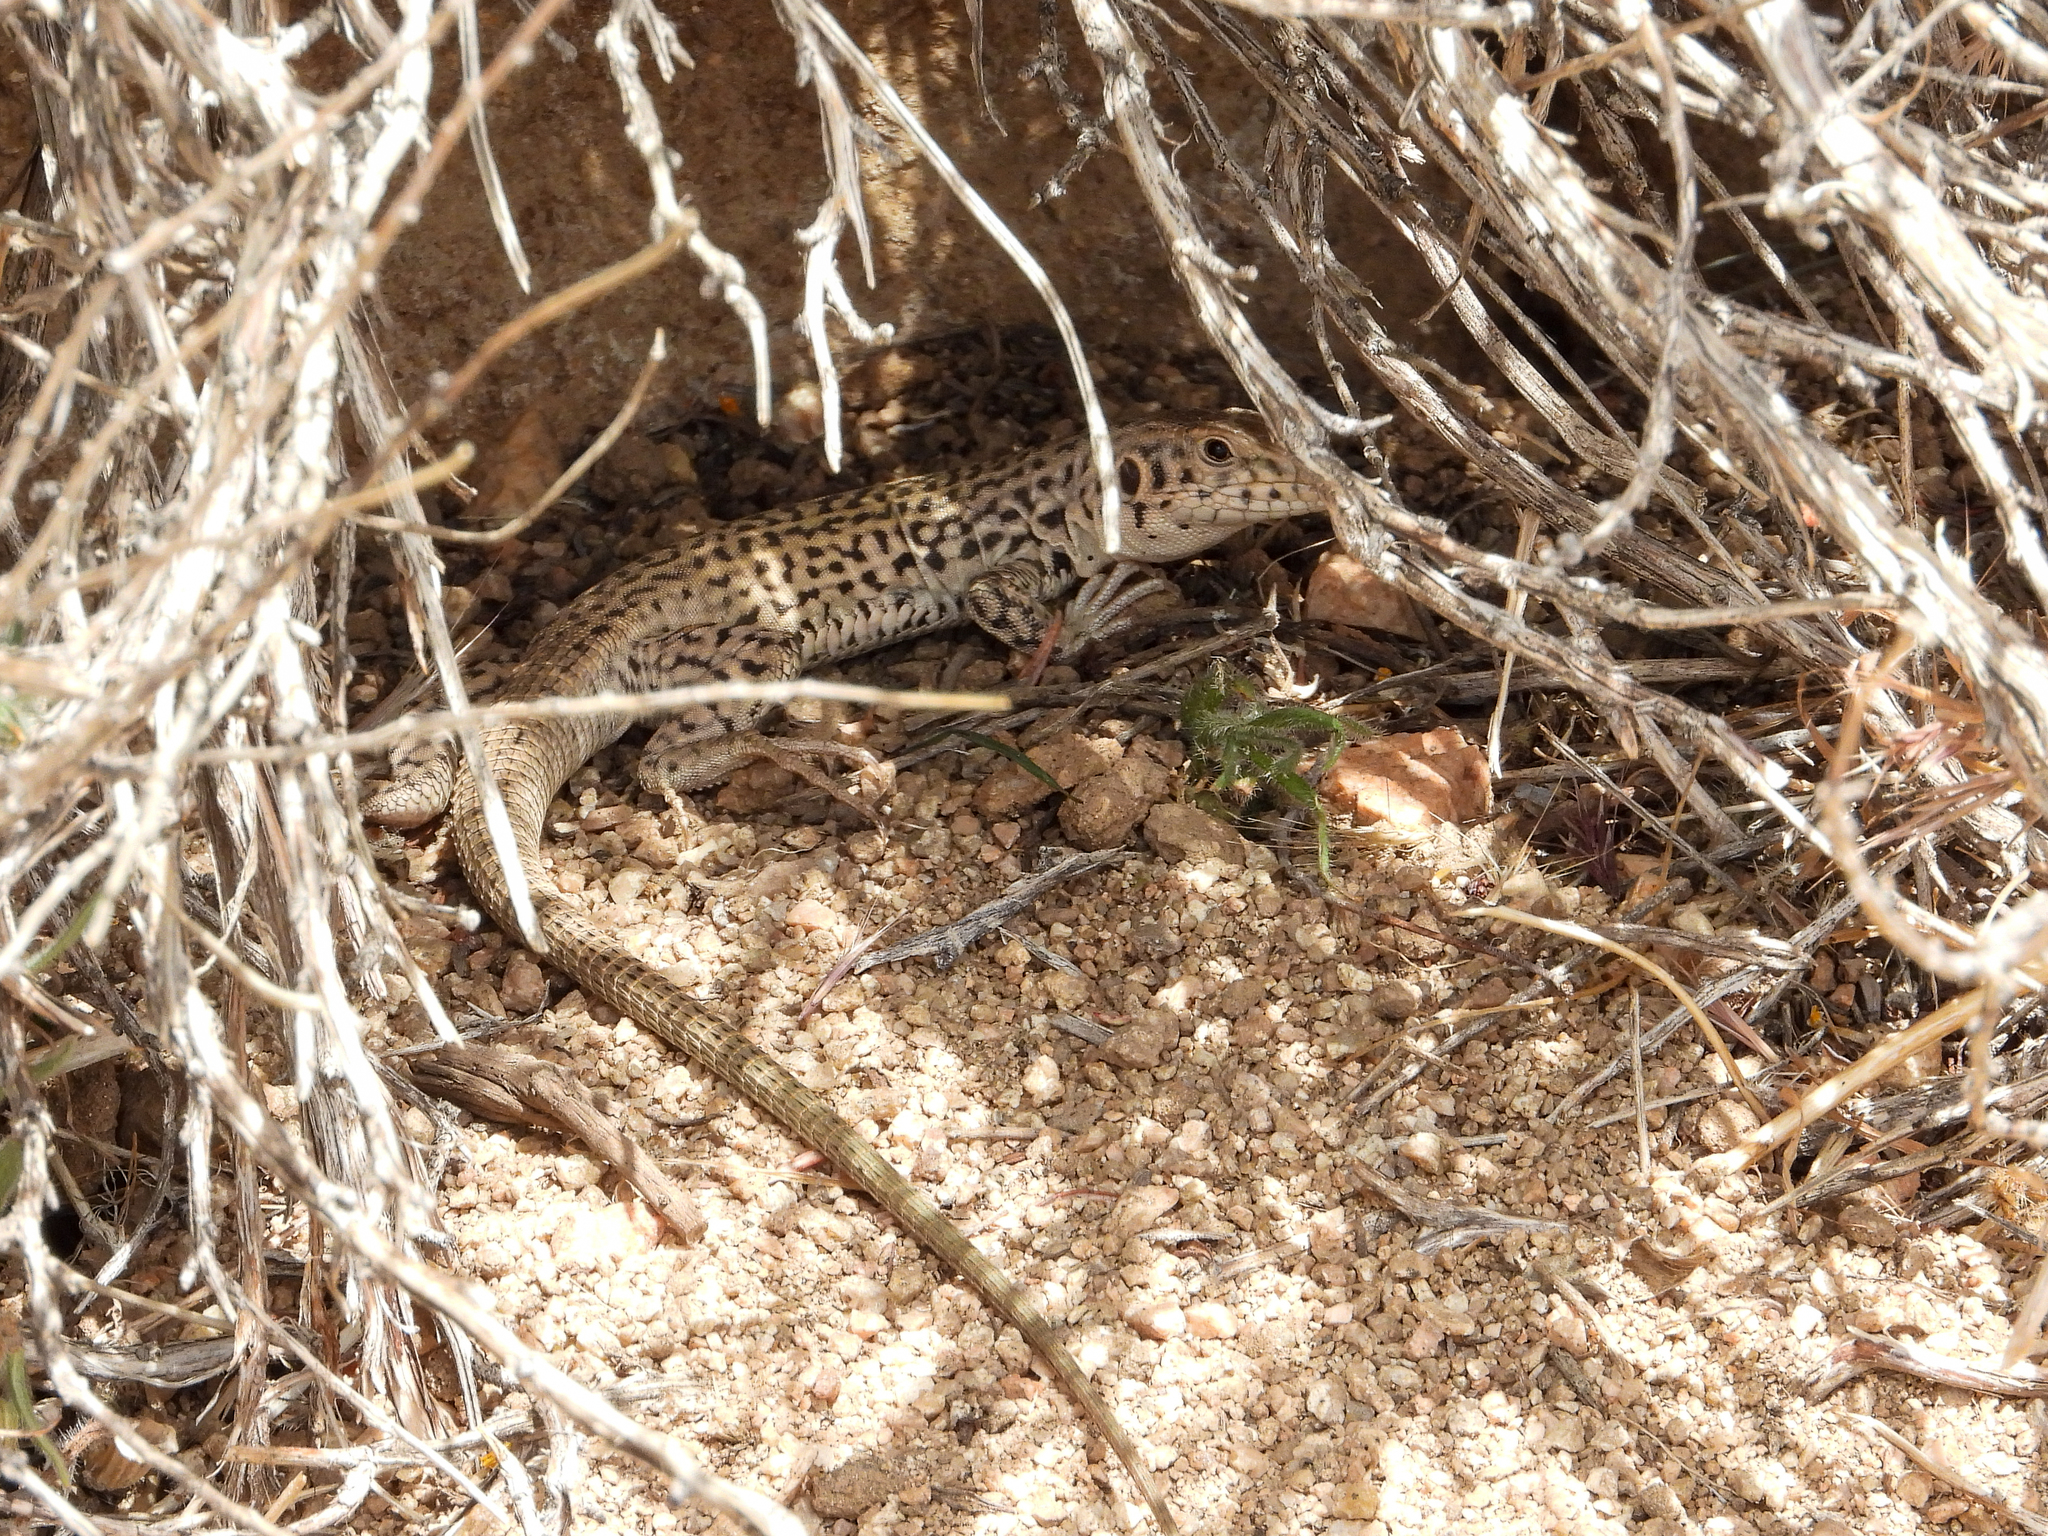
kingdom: Animalia
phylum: Chordata
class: Squamata
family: Teiidae
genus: Aspidoscelis
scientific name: Aspidoscelis tigris
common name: Tiger whiptail
